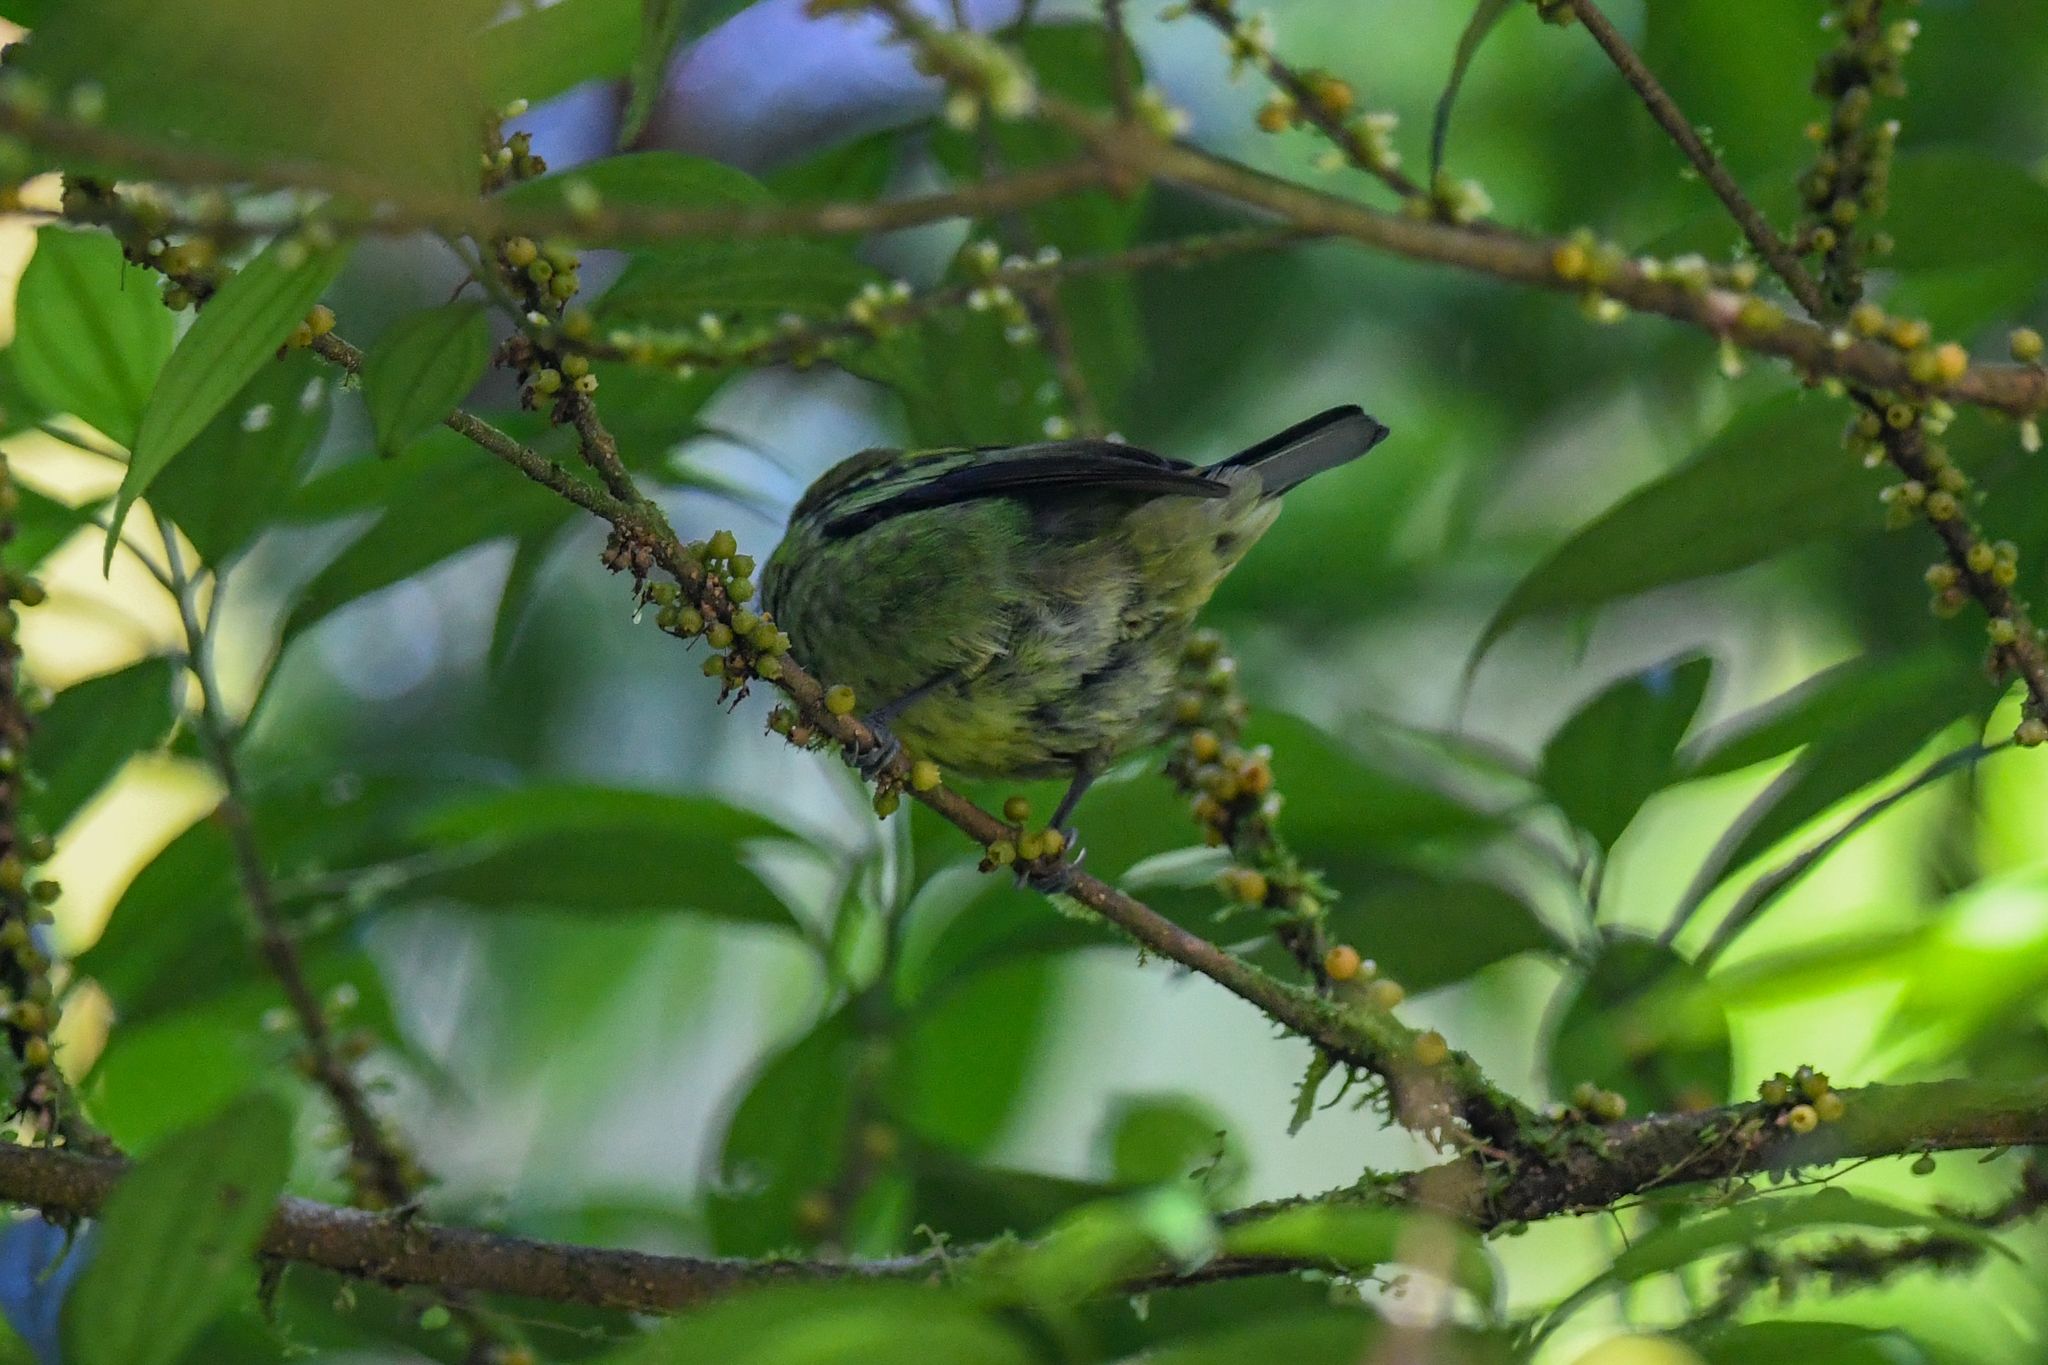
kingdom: Animalia
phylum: Chordata
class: Aves
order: Passeriformes
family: Thraupidae
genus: Tangara
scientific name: Tangara florida
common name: Emerald tanager
